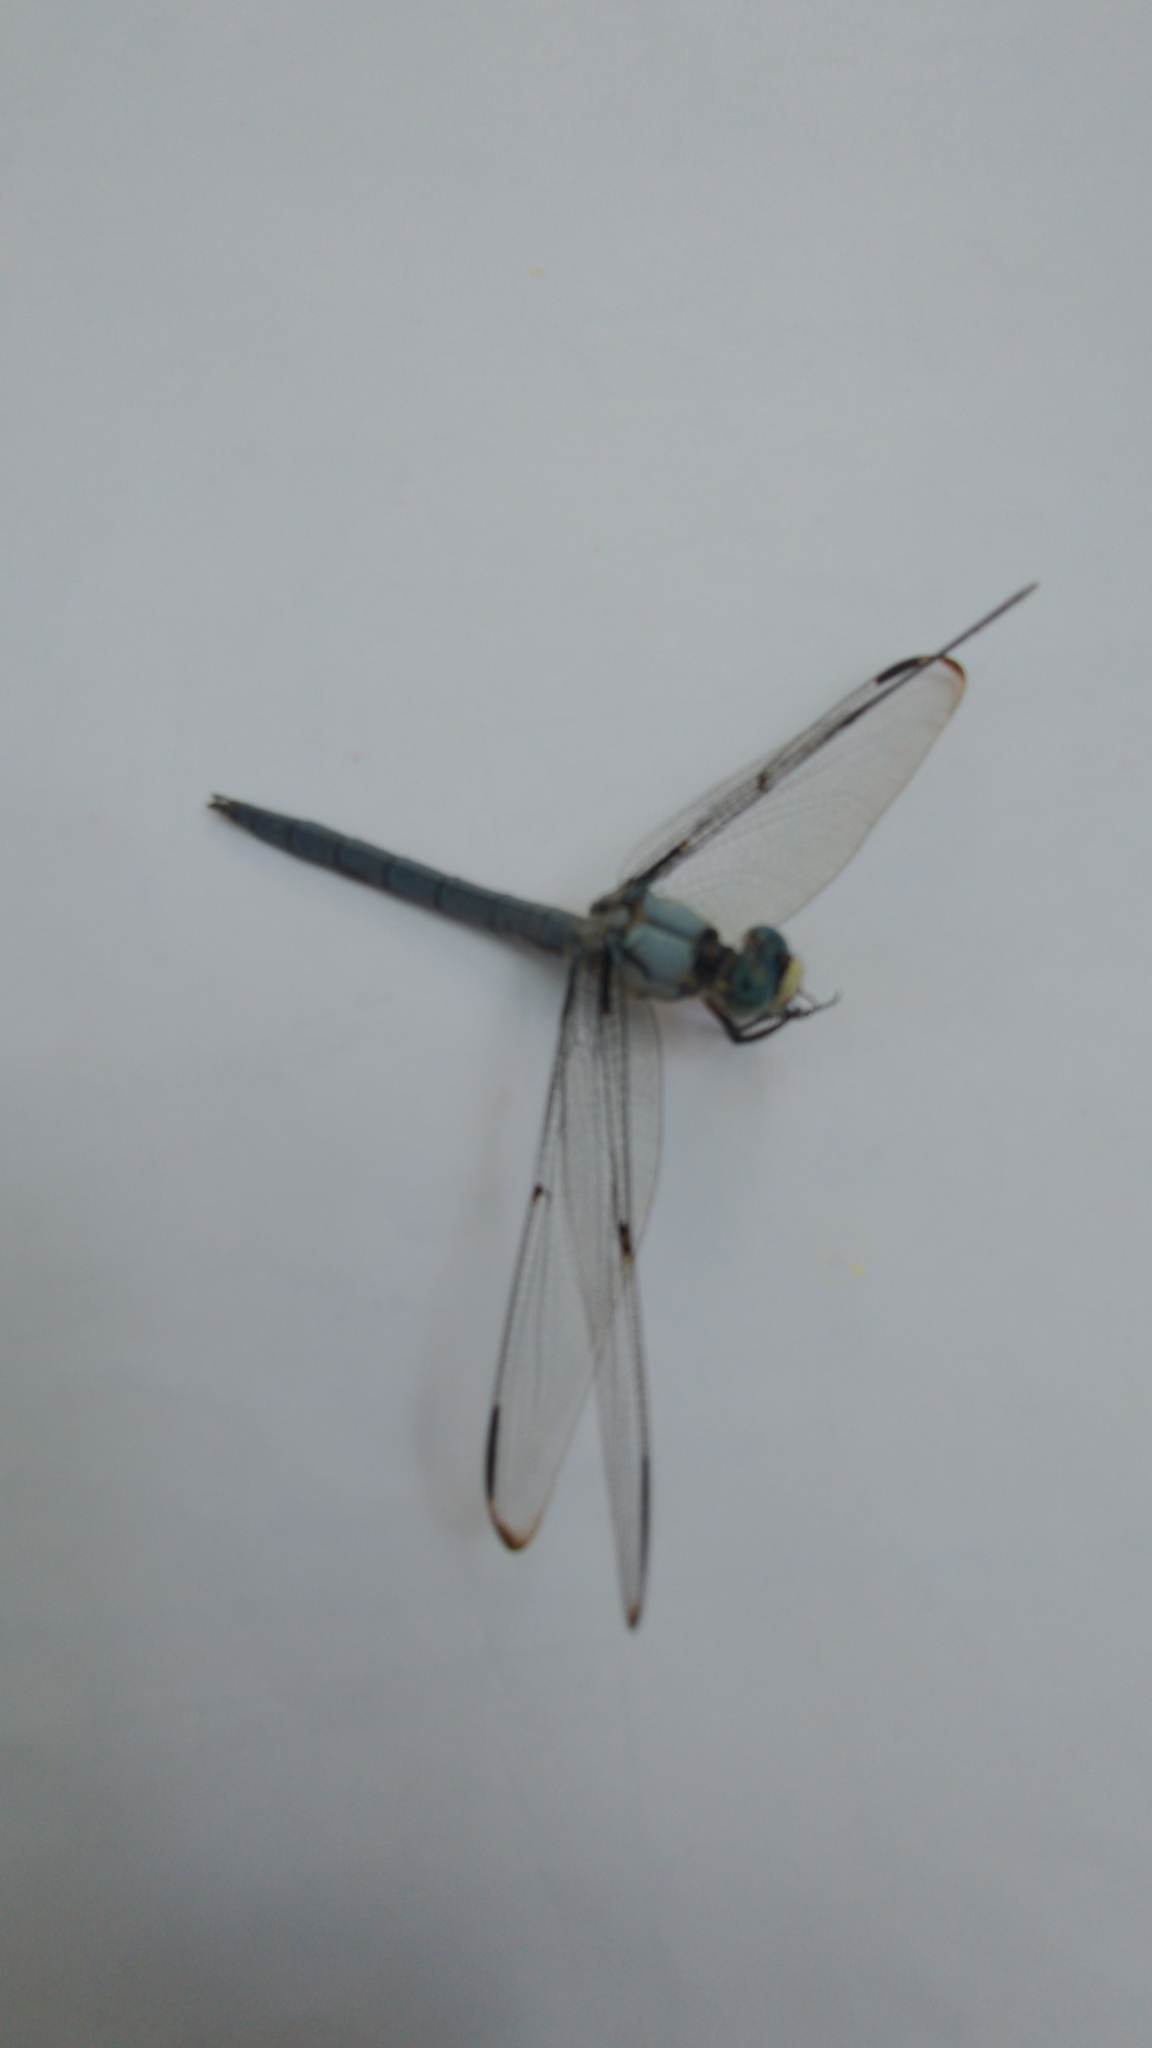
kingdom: Animalia
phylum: Arthropoda
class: Insecta
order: Odonata
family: Libellulidae
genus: Libellula
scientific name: Libellula vibrans
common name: Great blue skimmer
